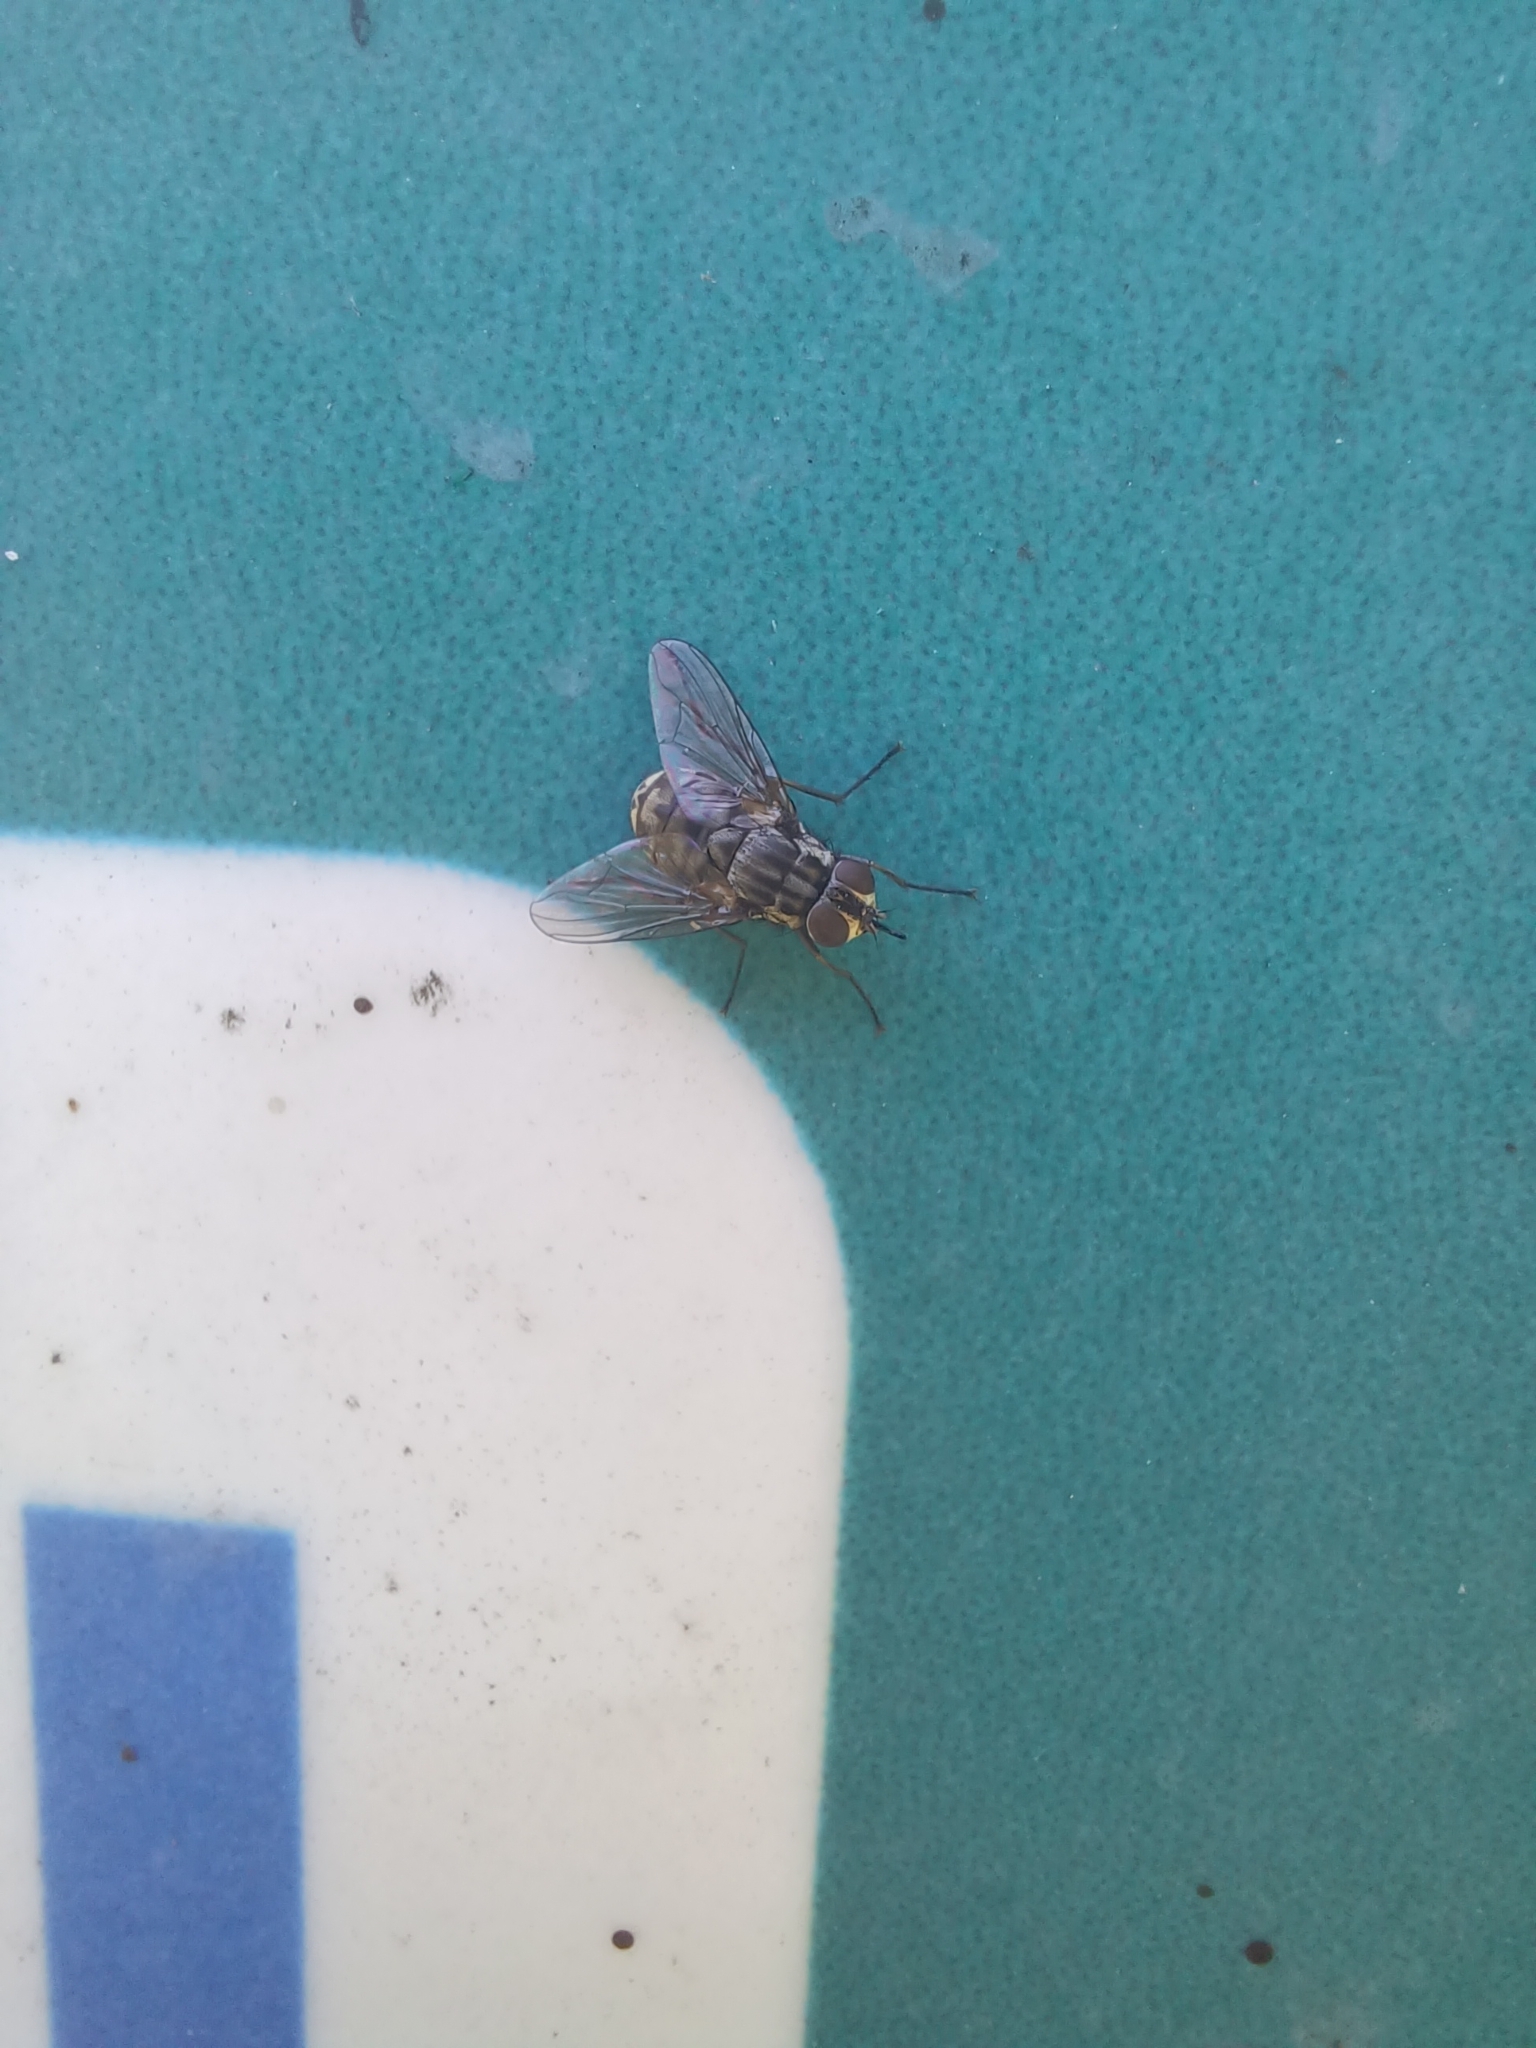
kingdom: Animalia
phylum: Arthropoda
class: Insecta
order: Diptera
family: Muscidae
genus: Stomoxys
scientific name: Stomoxys calcitrans
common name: Stable fly
